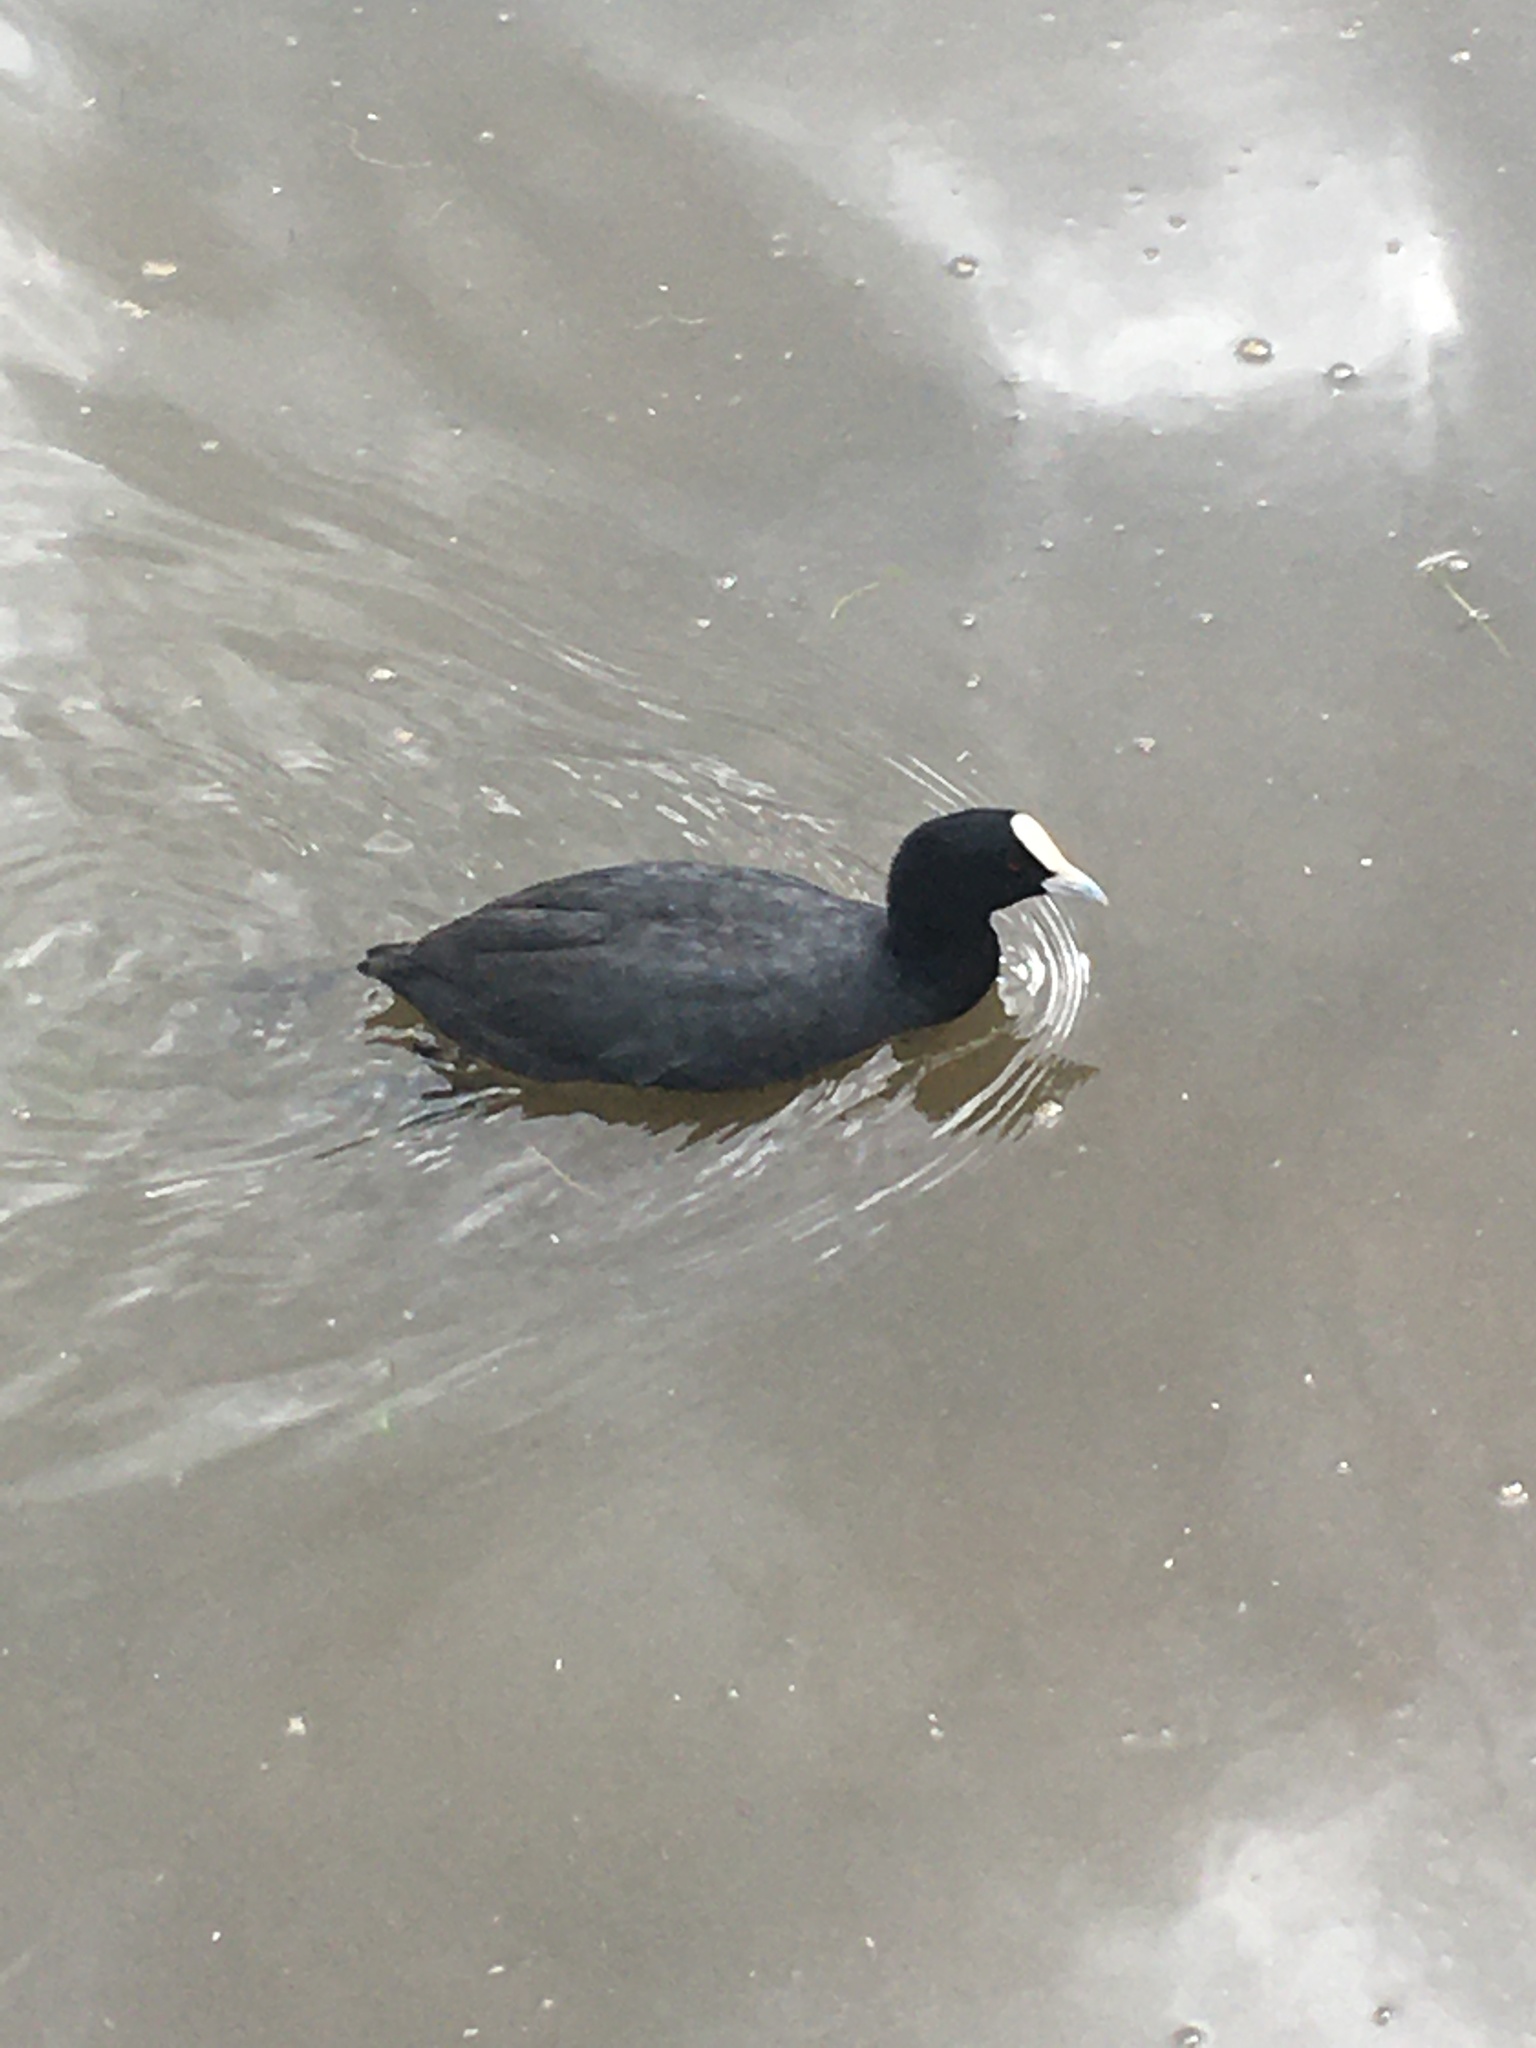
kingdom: Animalia
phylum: Chordata
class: Aves
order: Gruiformes
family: Rallidae
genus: Fulica
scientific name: Fulica atra
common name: Eurasian coot
